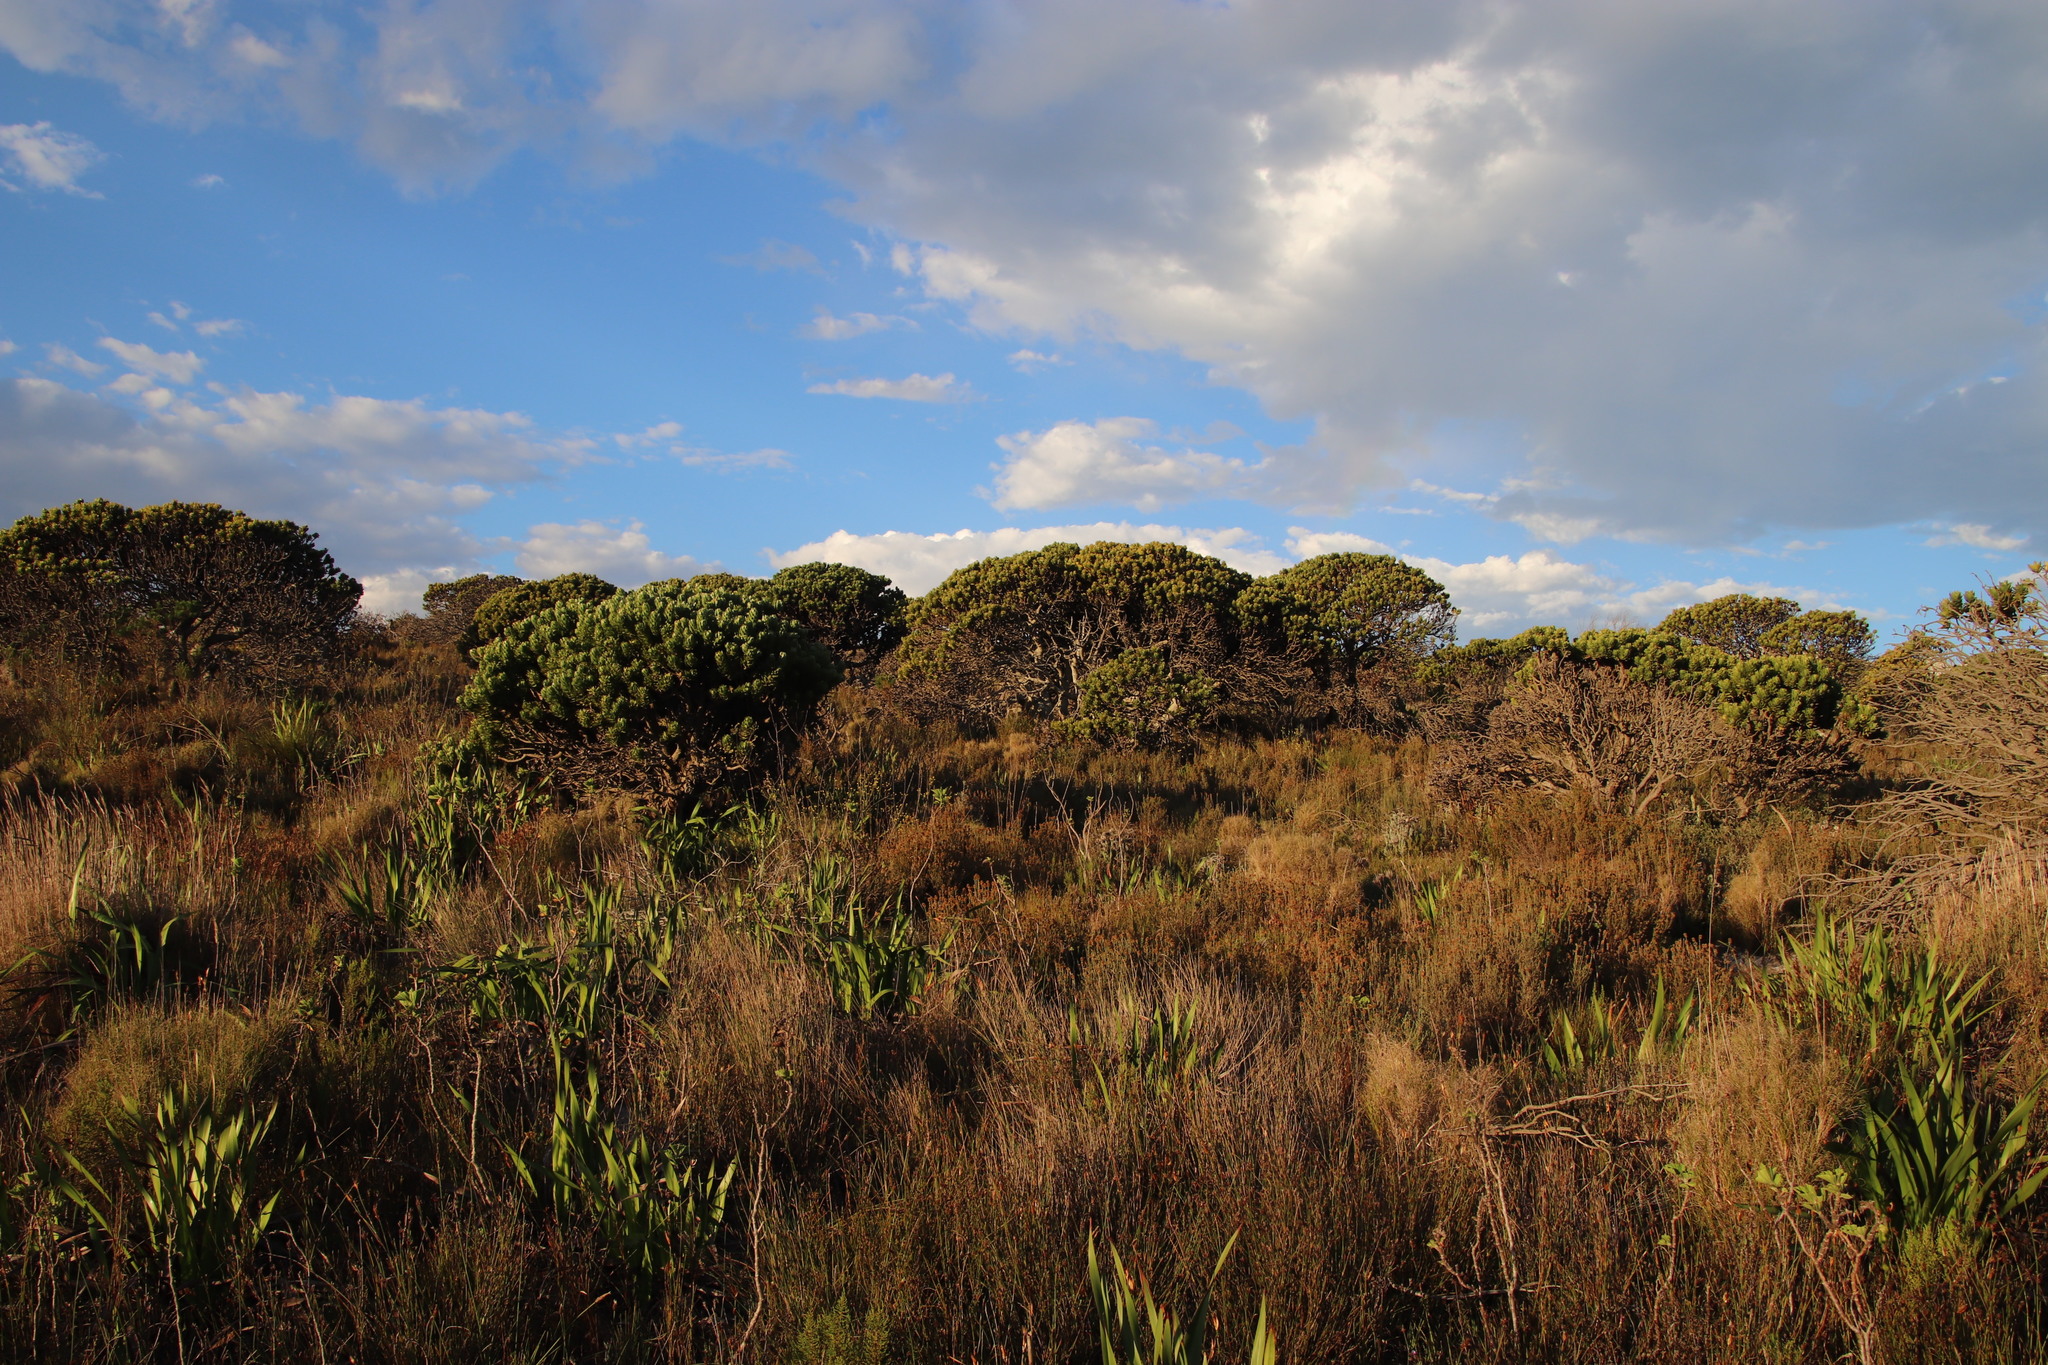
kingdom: Plantae
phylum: Tracheophyta
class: Magnoliopsida
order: Proteales
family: Proteaceae
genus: Mimetes
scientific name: Mimetes fimbriifolius
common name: Fringed bottlebrush
